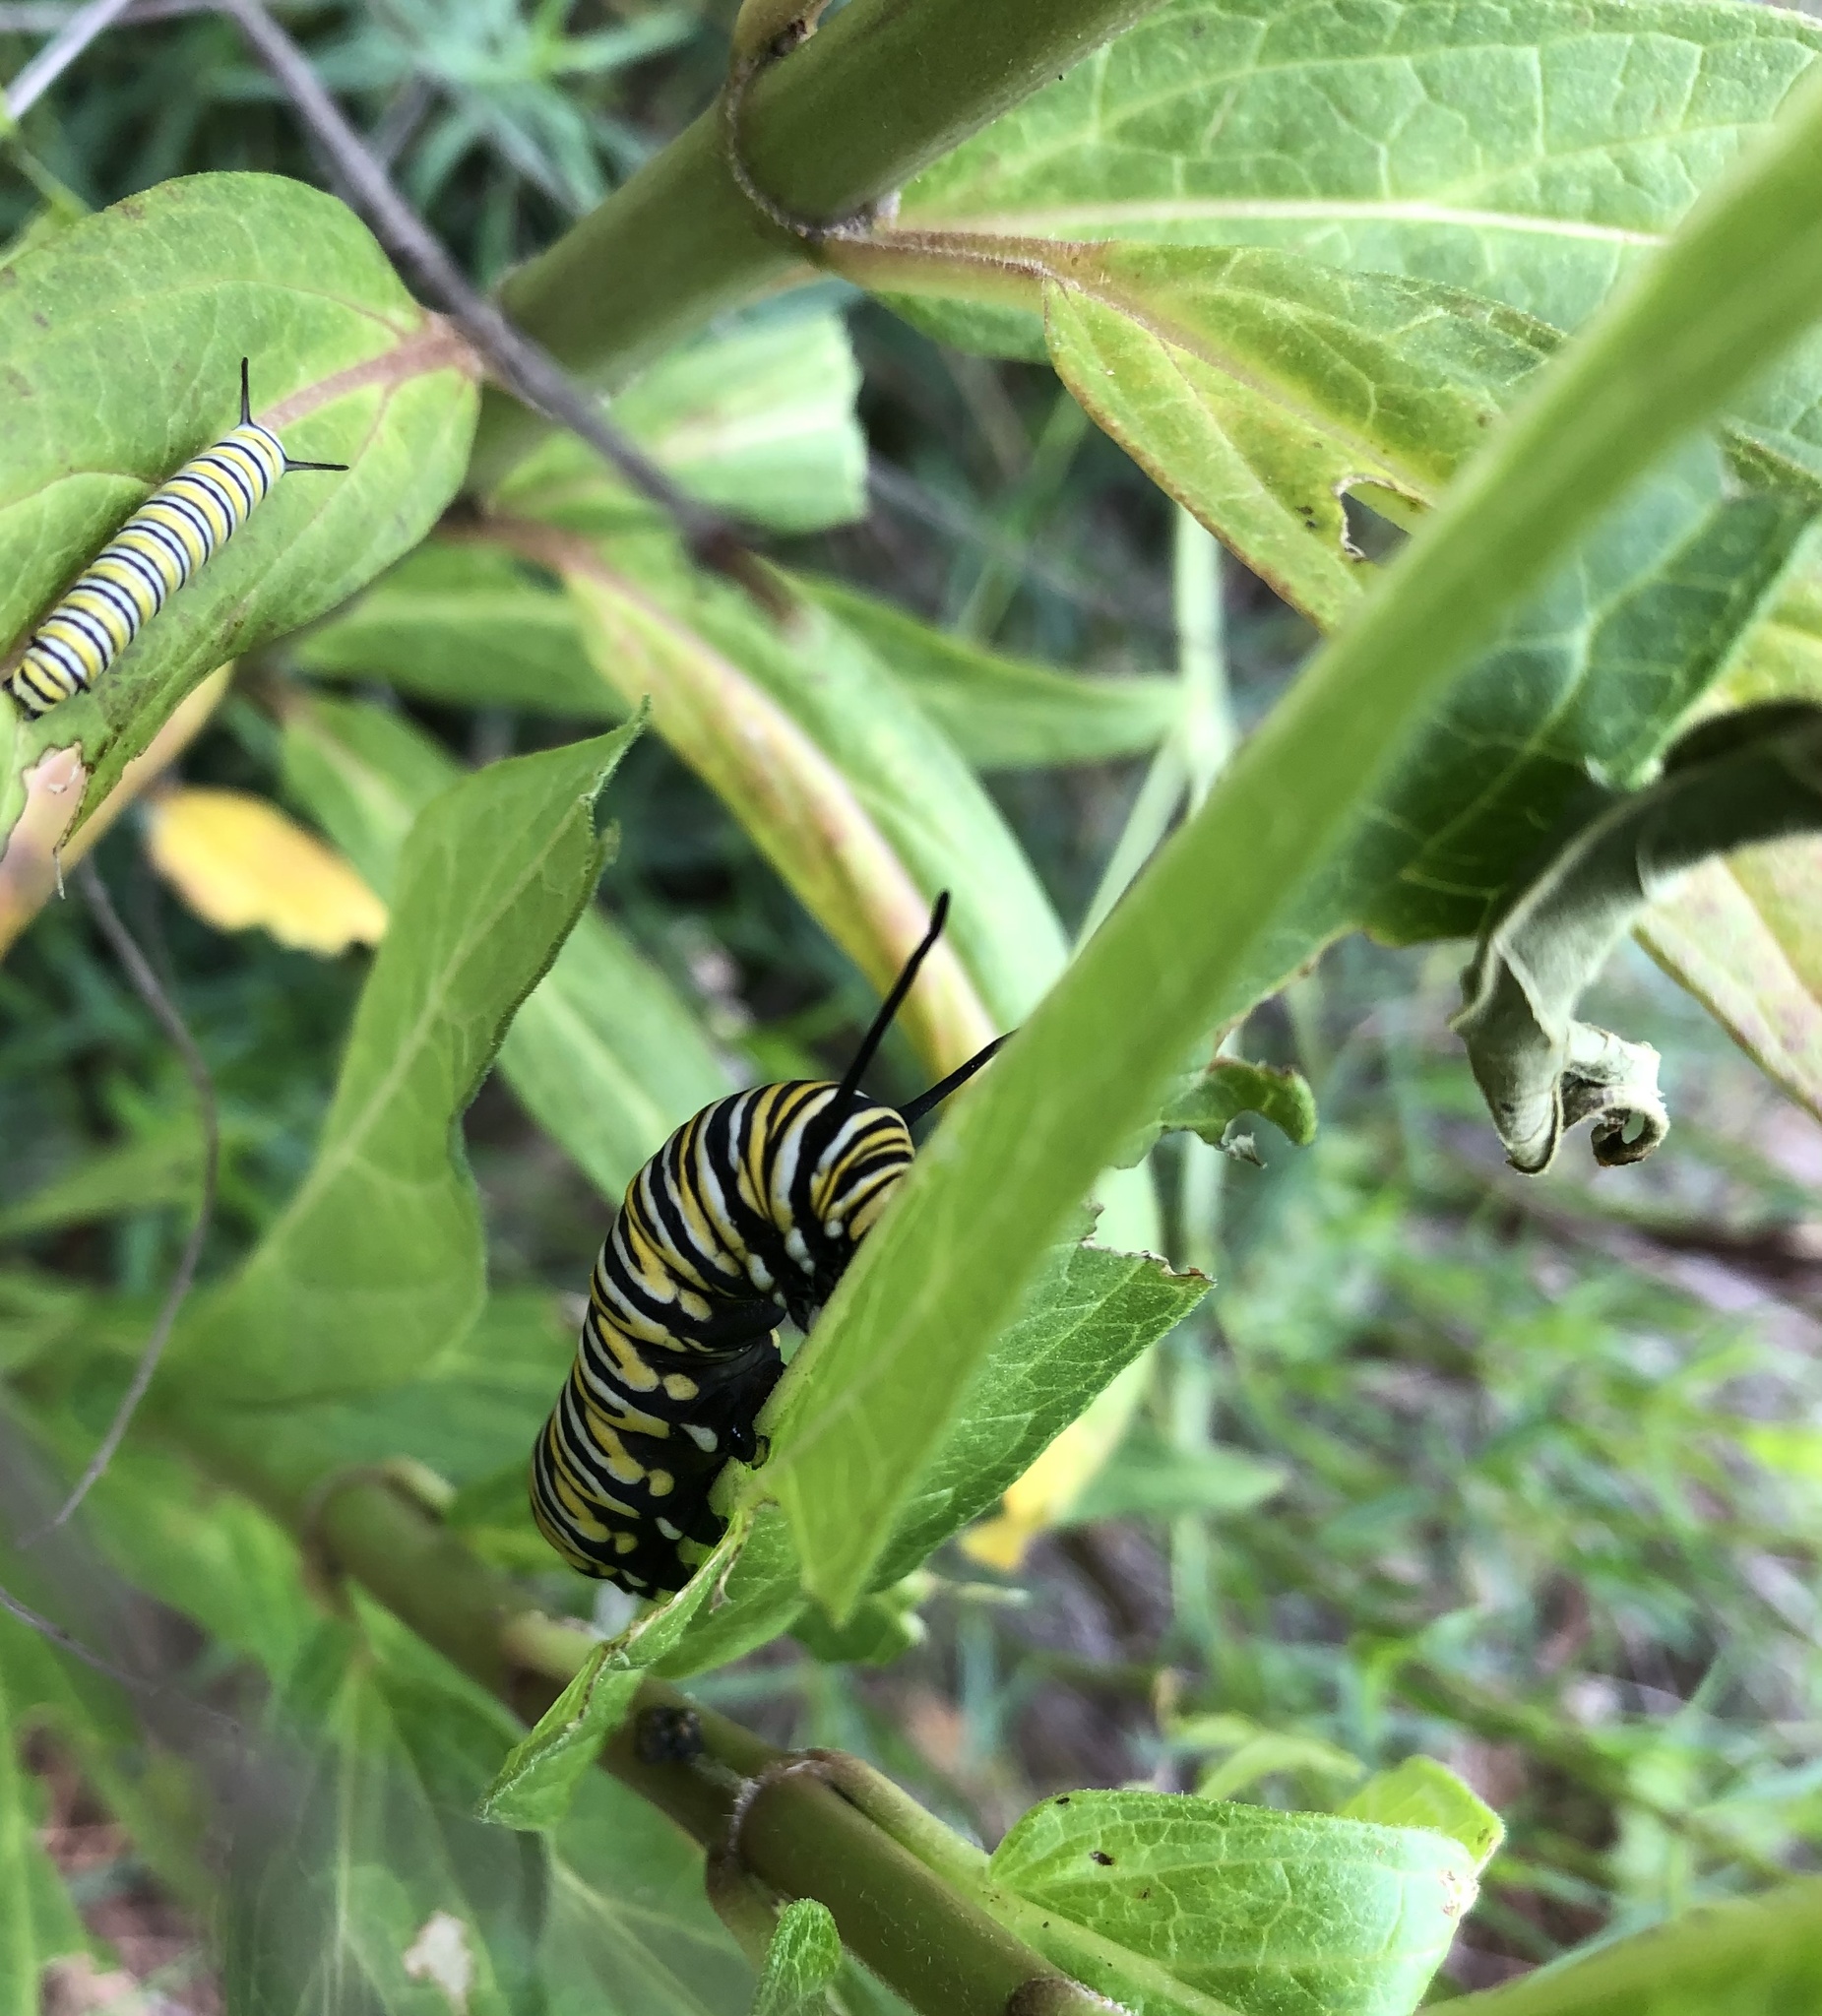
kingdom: Animalia
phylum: Arthropoda
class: Insecta
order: Lepidoptera
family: Nymphalidae
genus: Danaus
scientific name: Danaus plexippus
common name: Monarch
